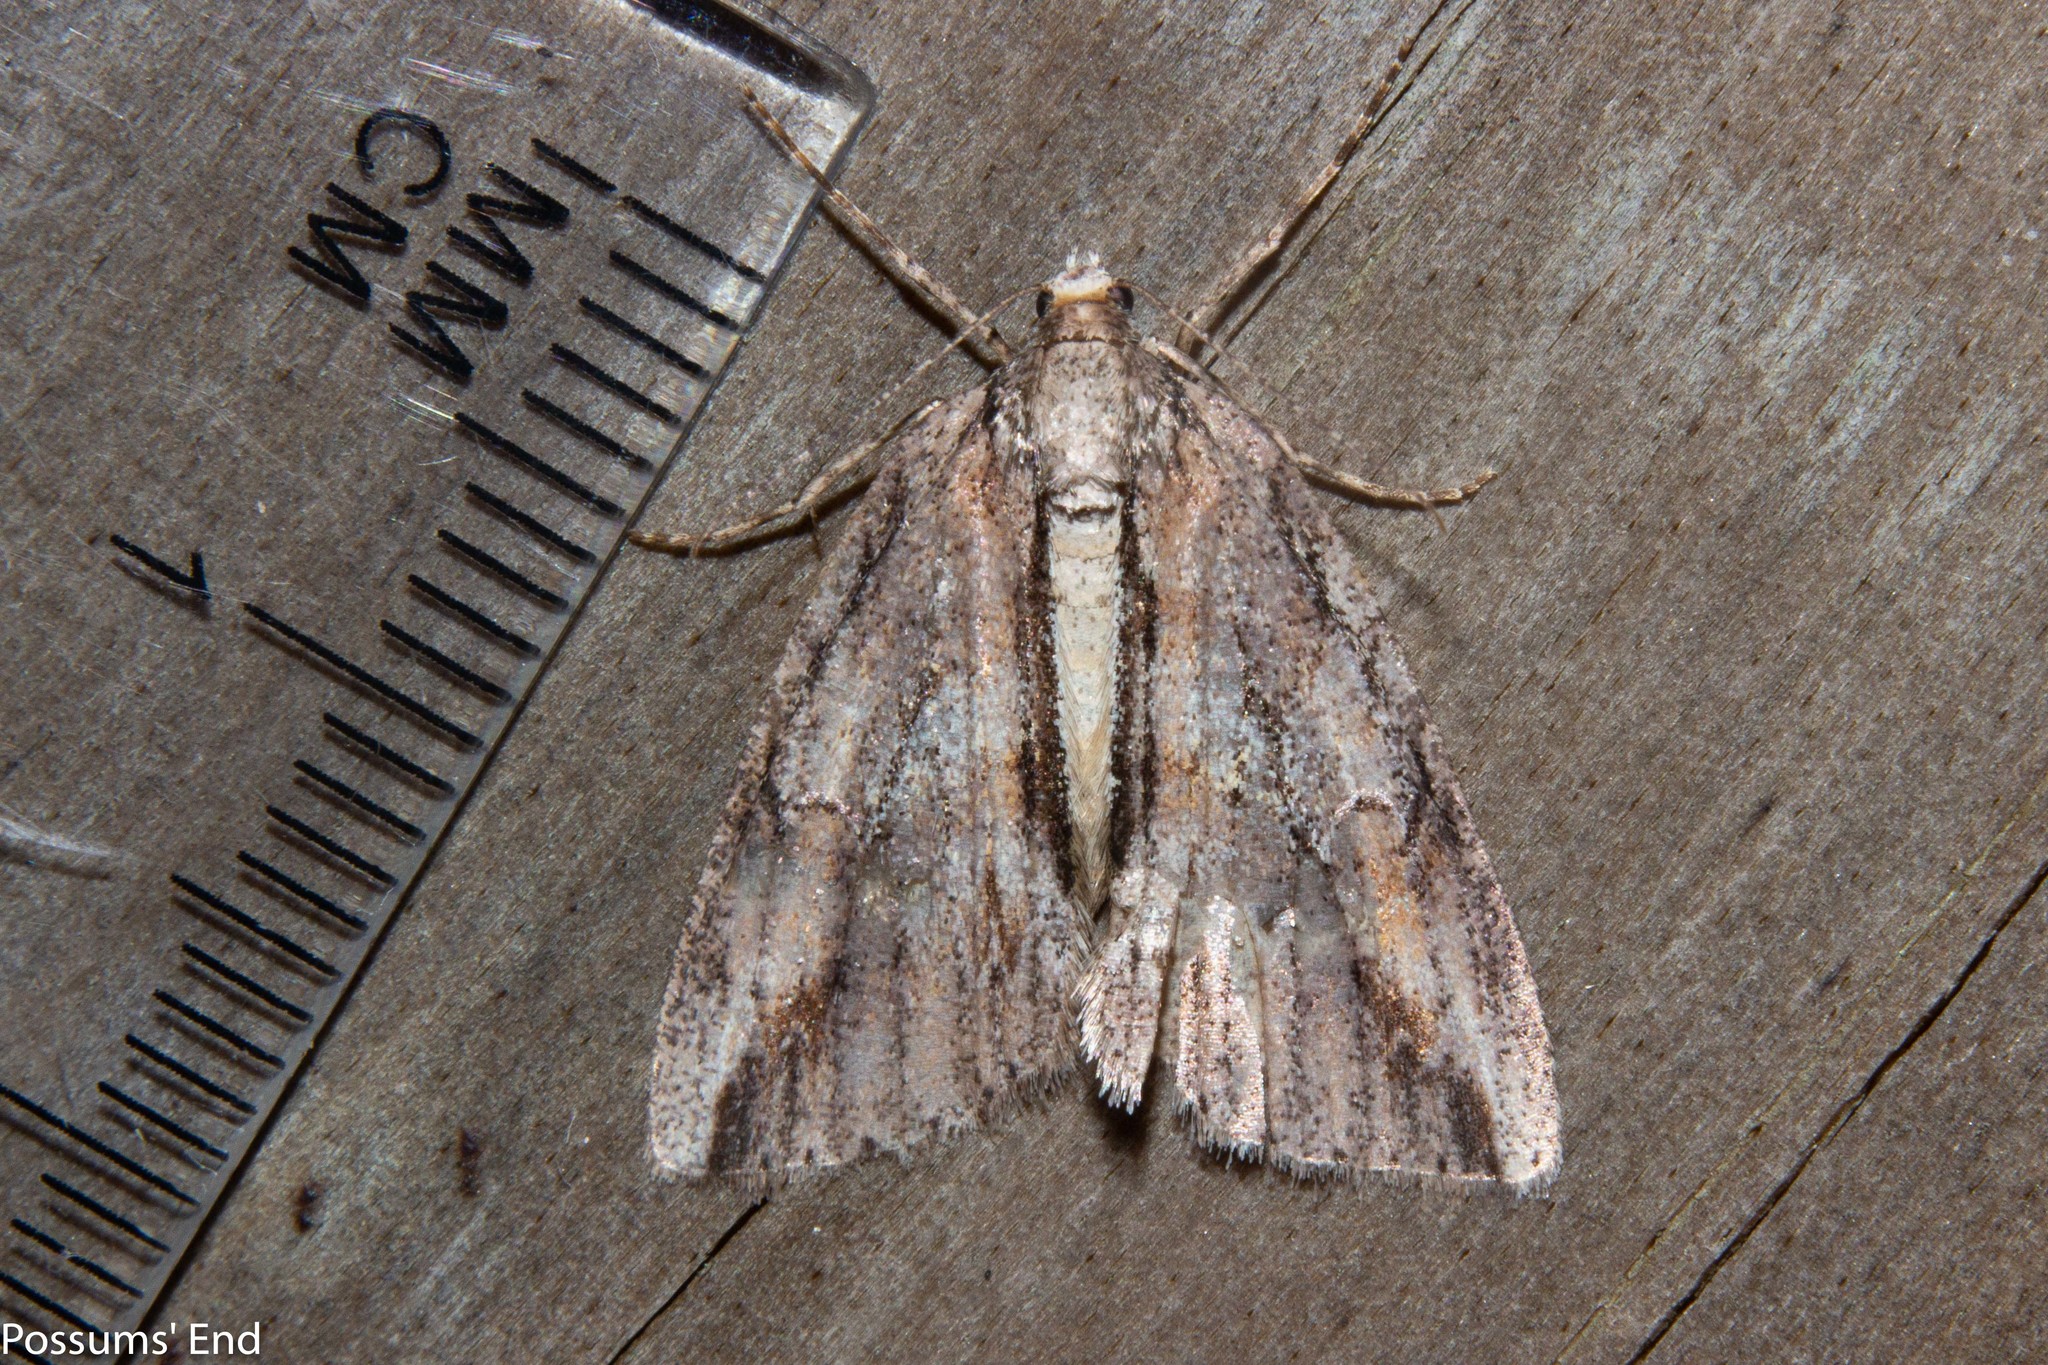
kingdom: Animalia
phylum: Arthropoda
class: Insecta
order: Lepidoptera
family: Geometridae
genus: Pseudocoremia
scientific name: Pseudocoremia lupinata
